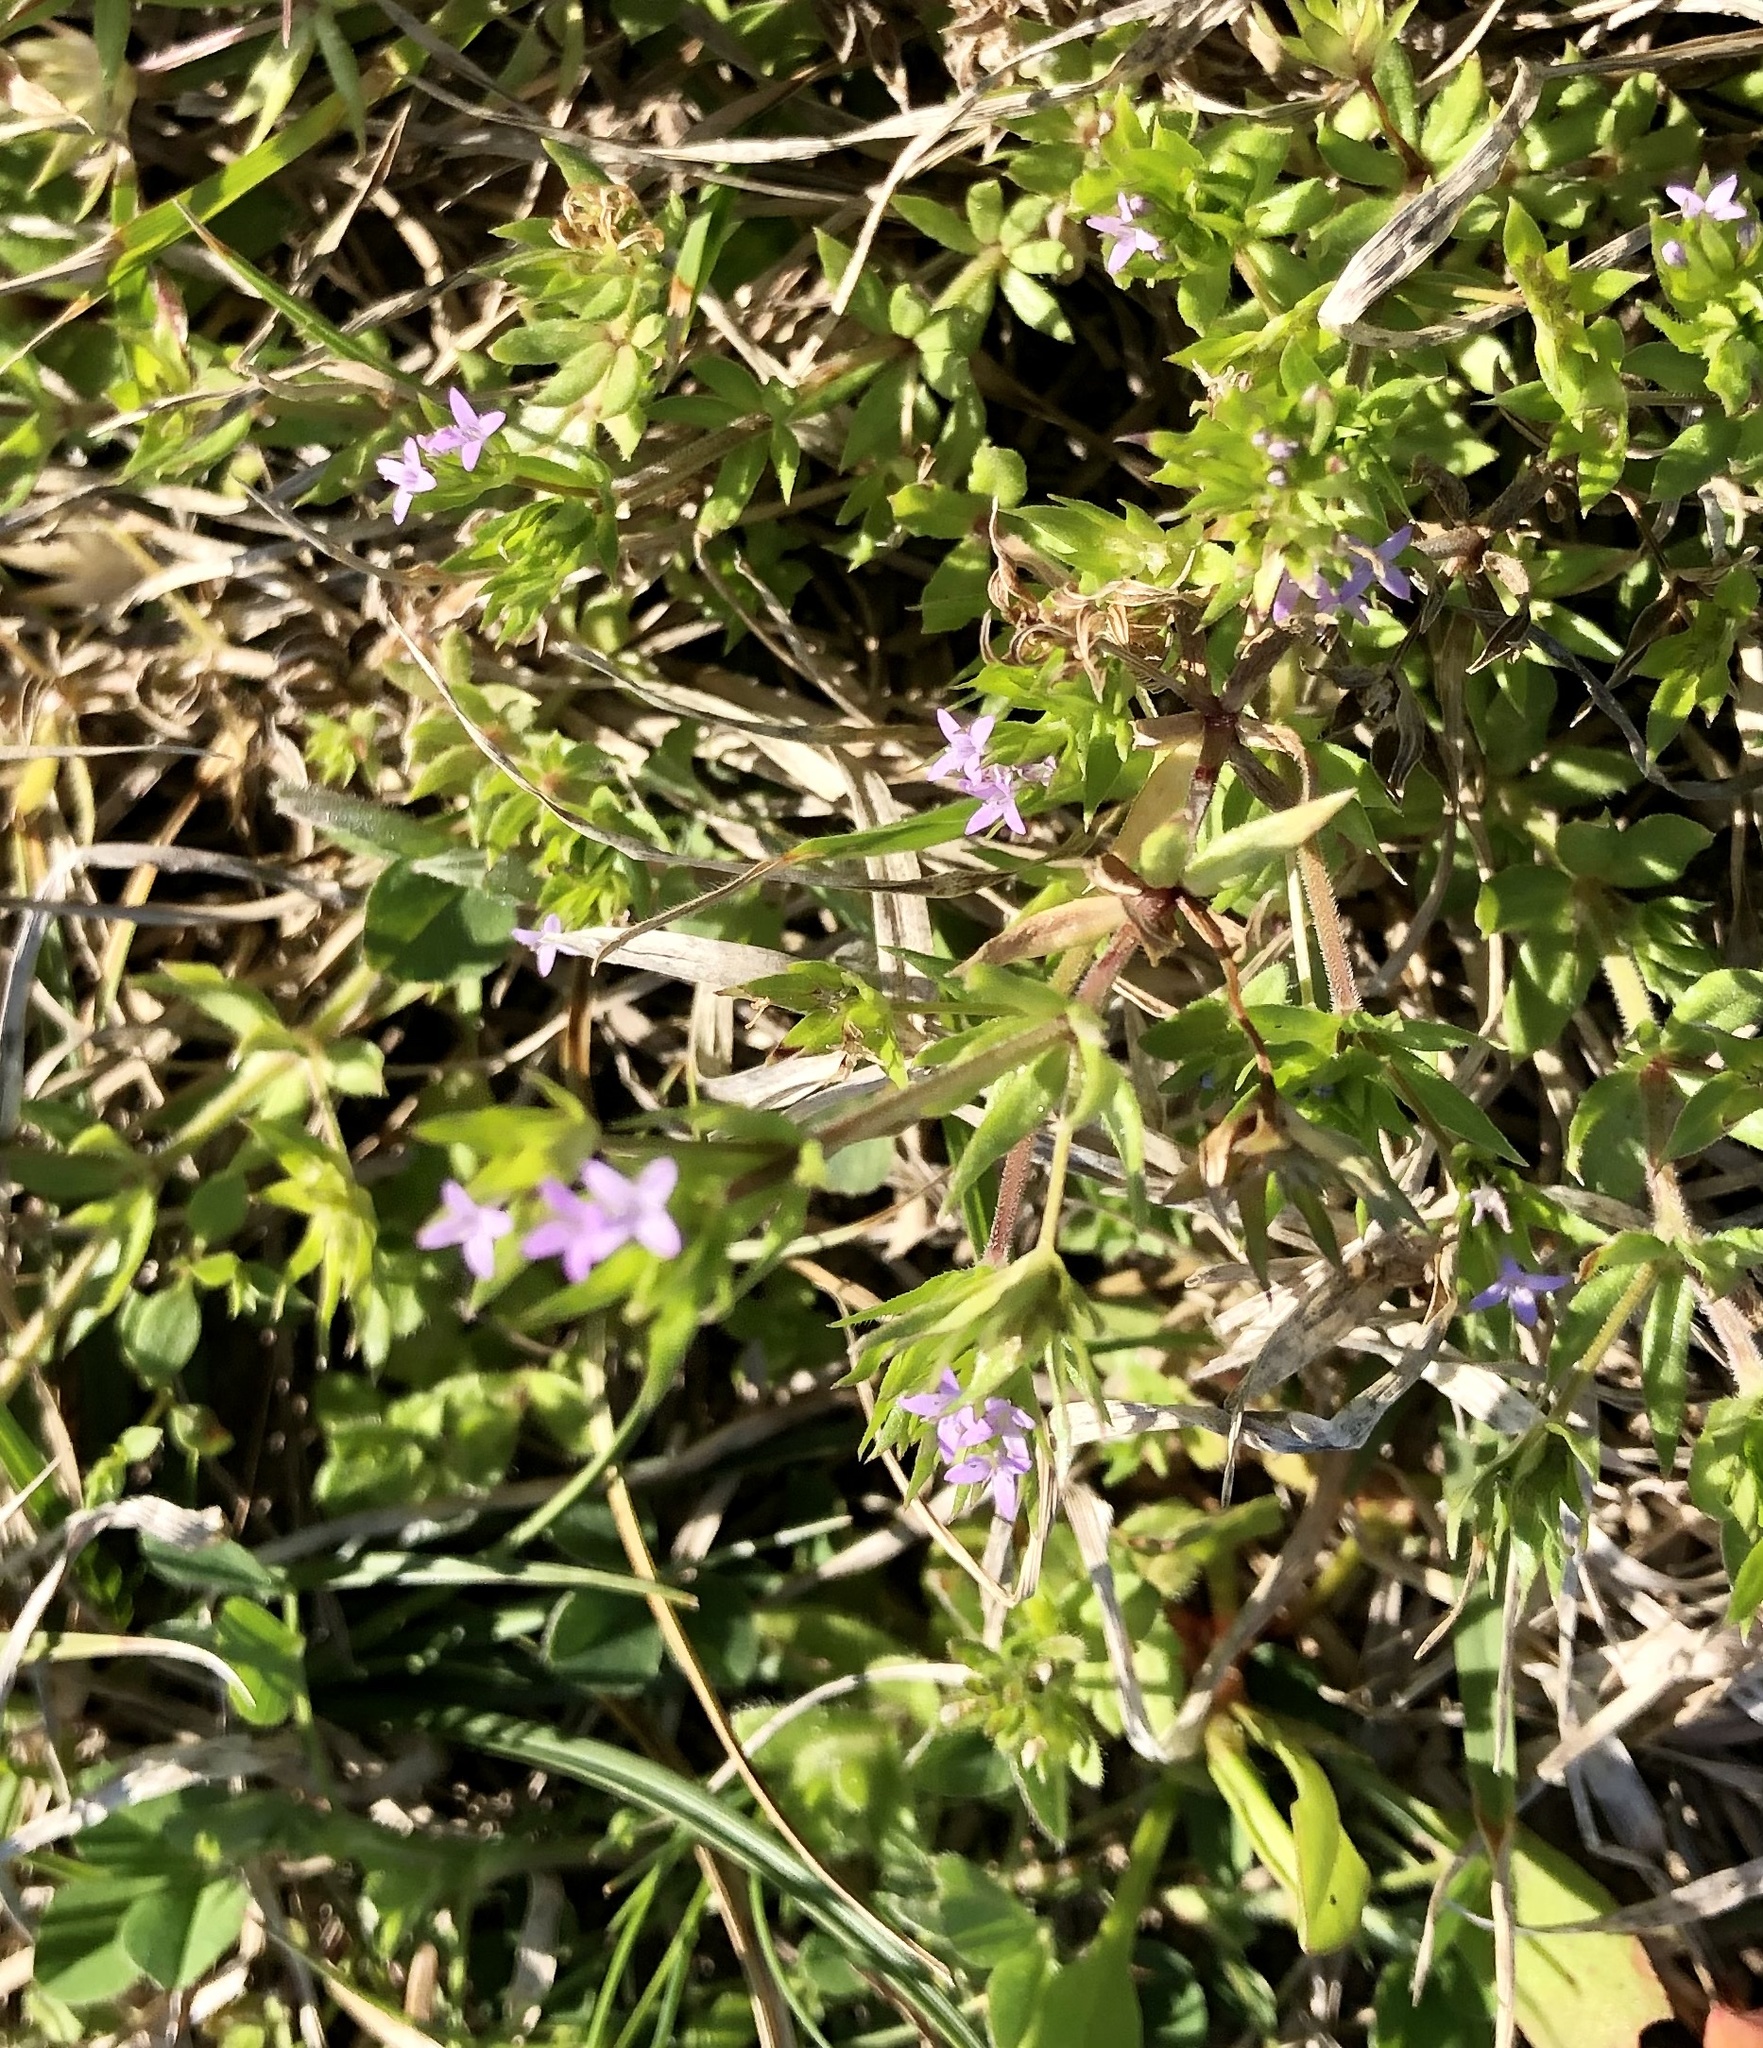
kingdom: Plantae
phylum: Tracheophyta
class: Magnoliopsida
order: Gentianales
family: Rubiaceae
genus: Sherardia
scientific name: Sherardia arvensis
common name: Field madder
